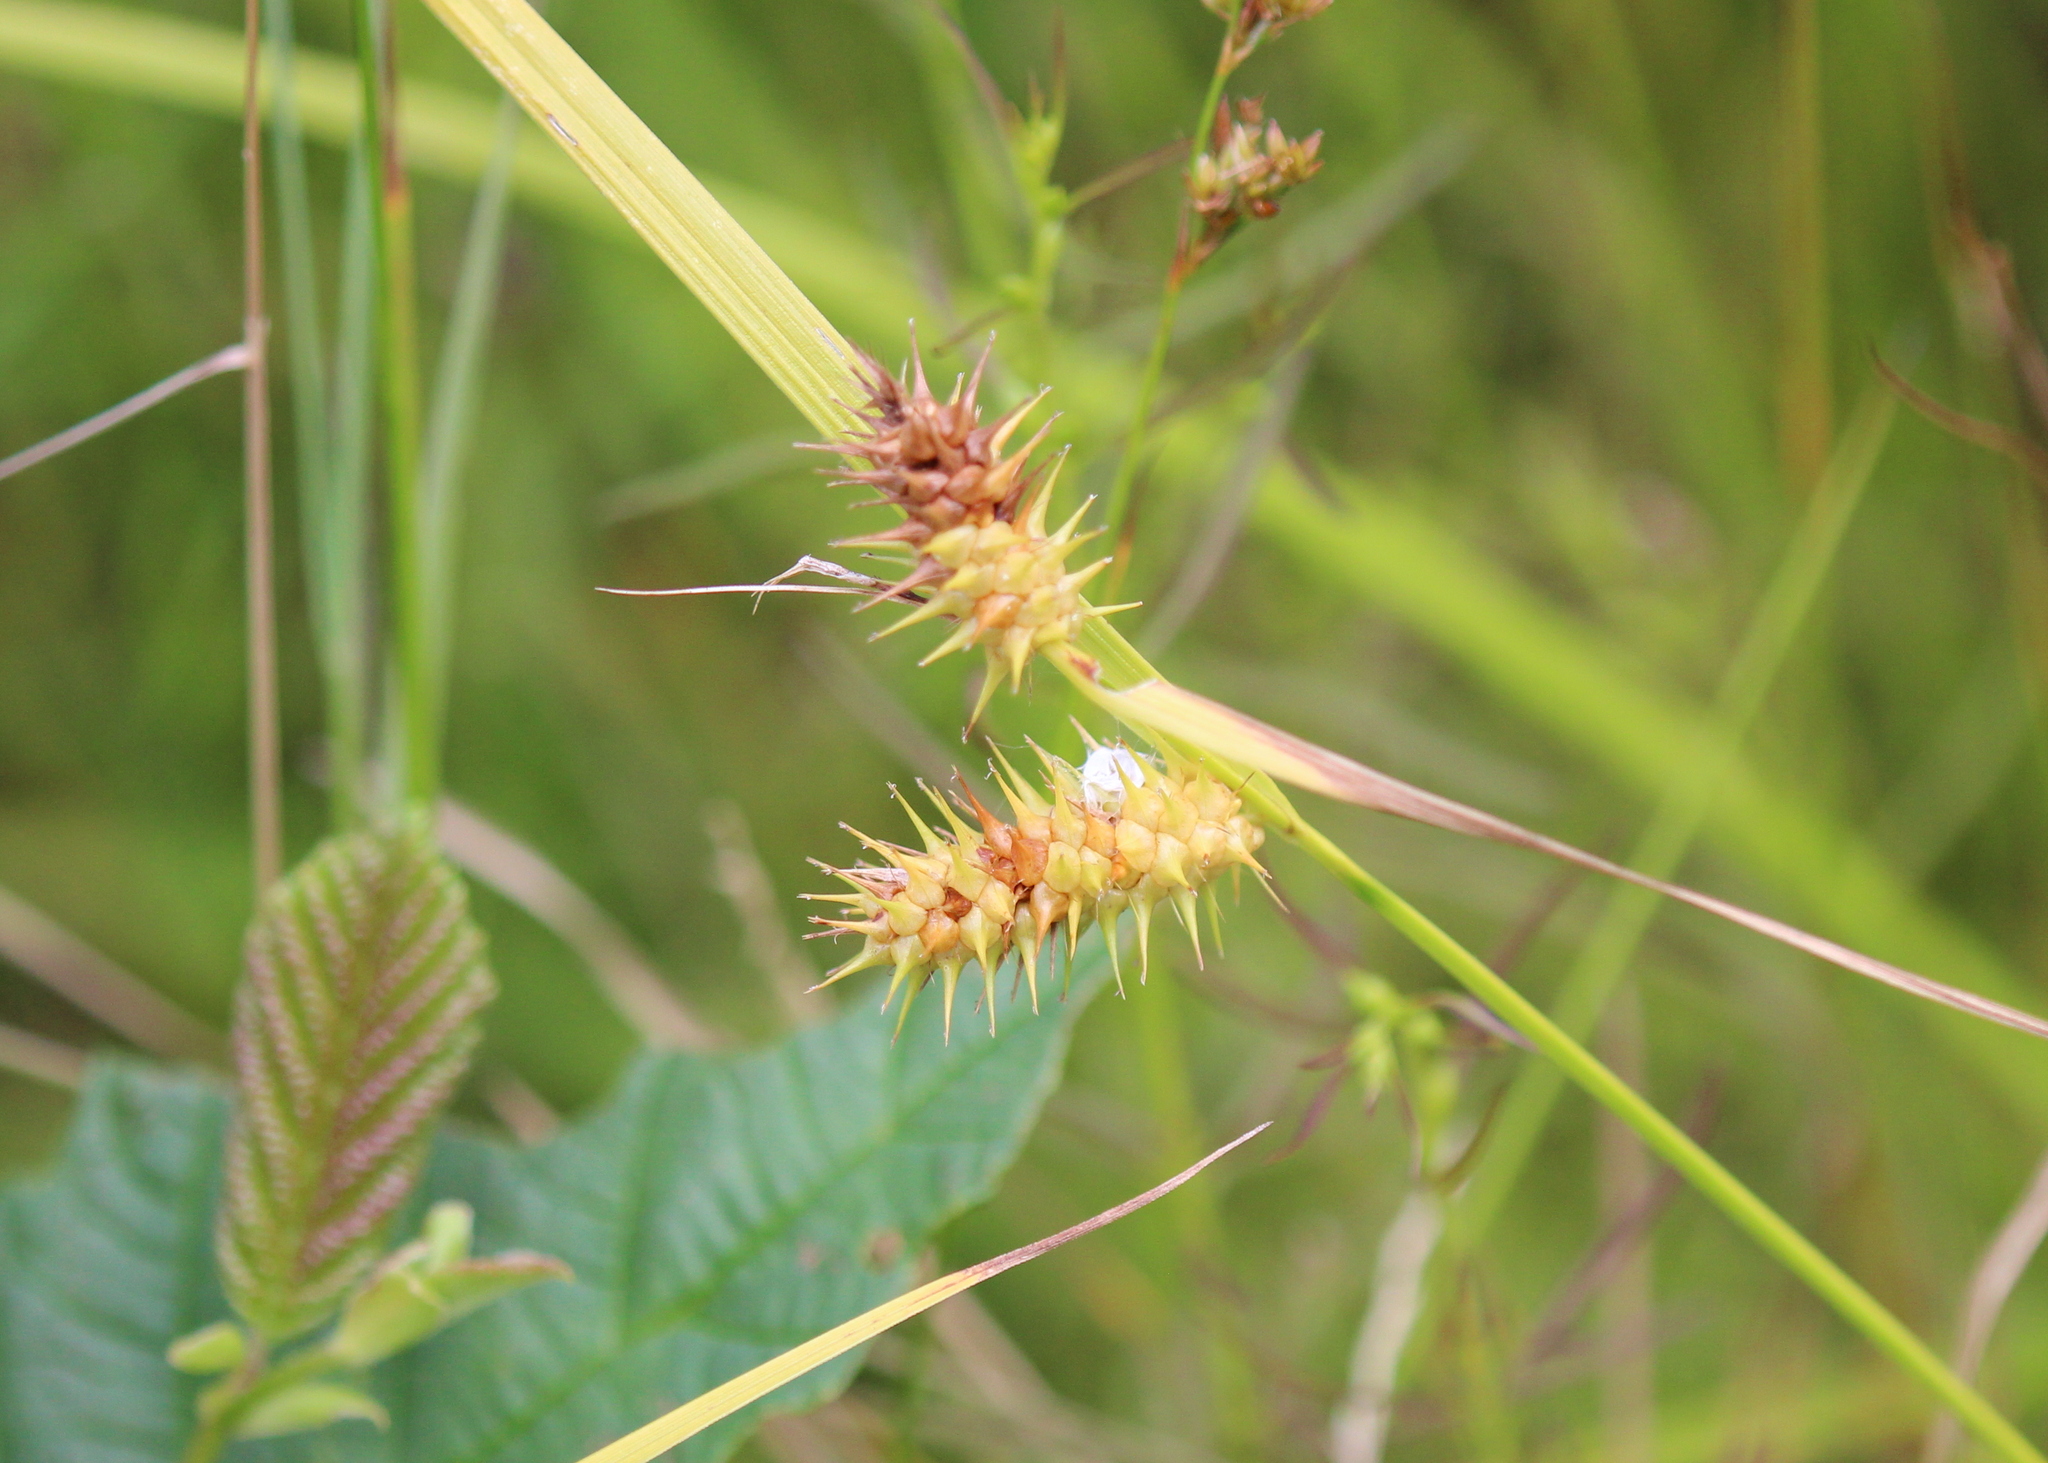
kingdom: Plantae
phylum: Tracheophyta
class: Liliopsida
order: Poales
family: Cyperaceae
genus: Carex
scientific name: Carex lurida
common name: Sallow sedge
